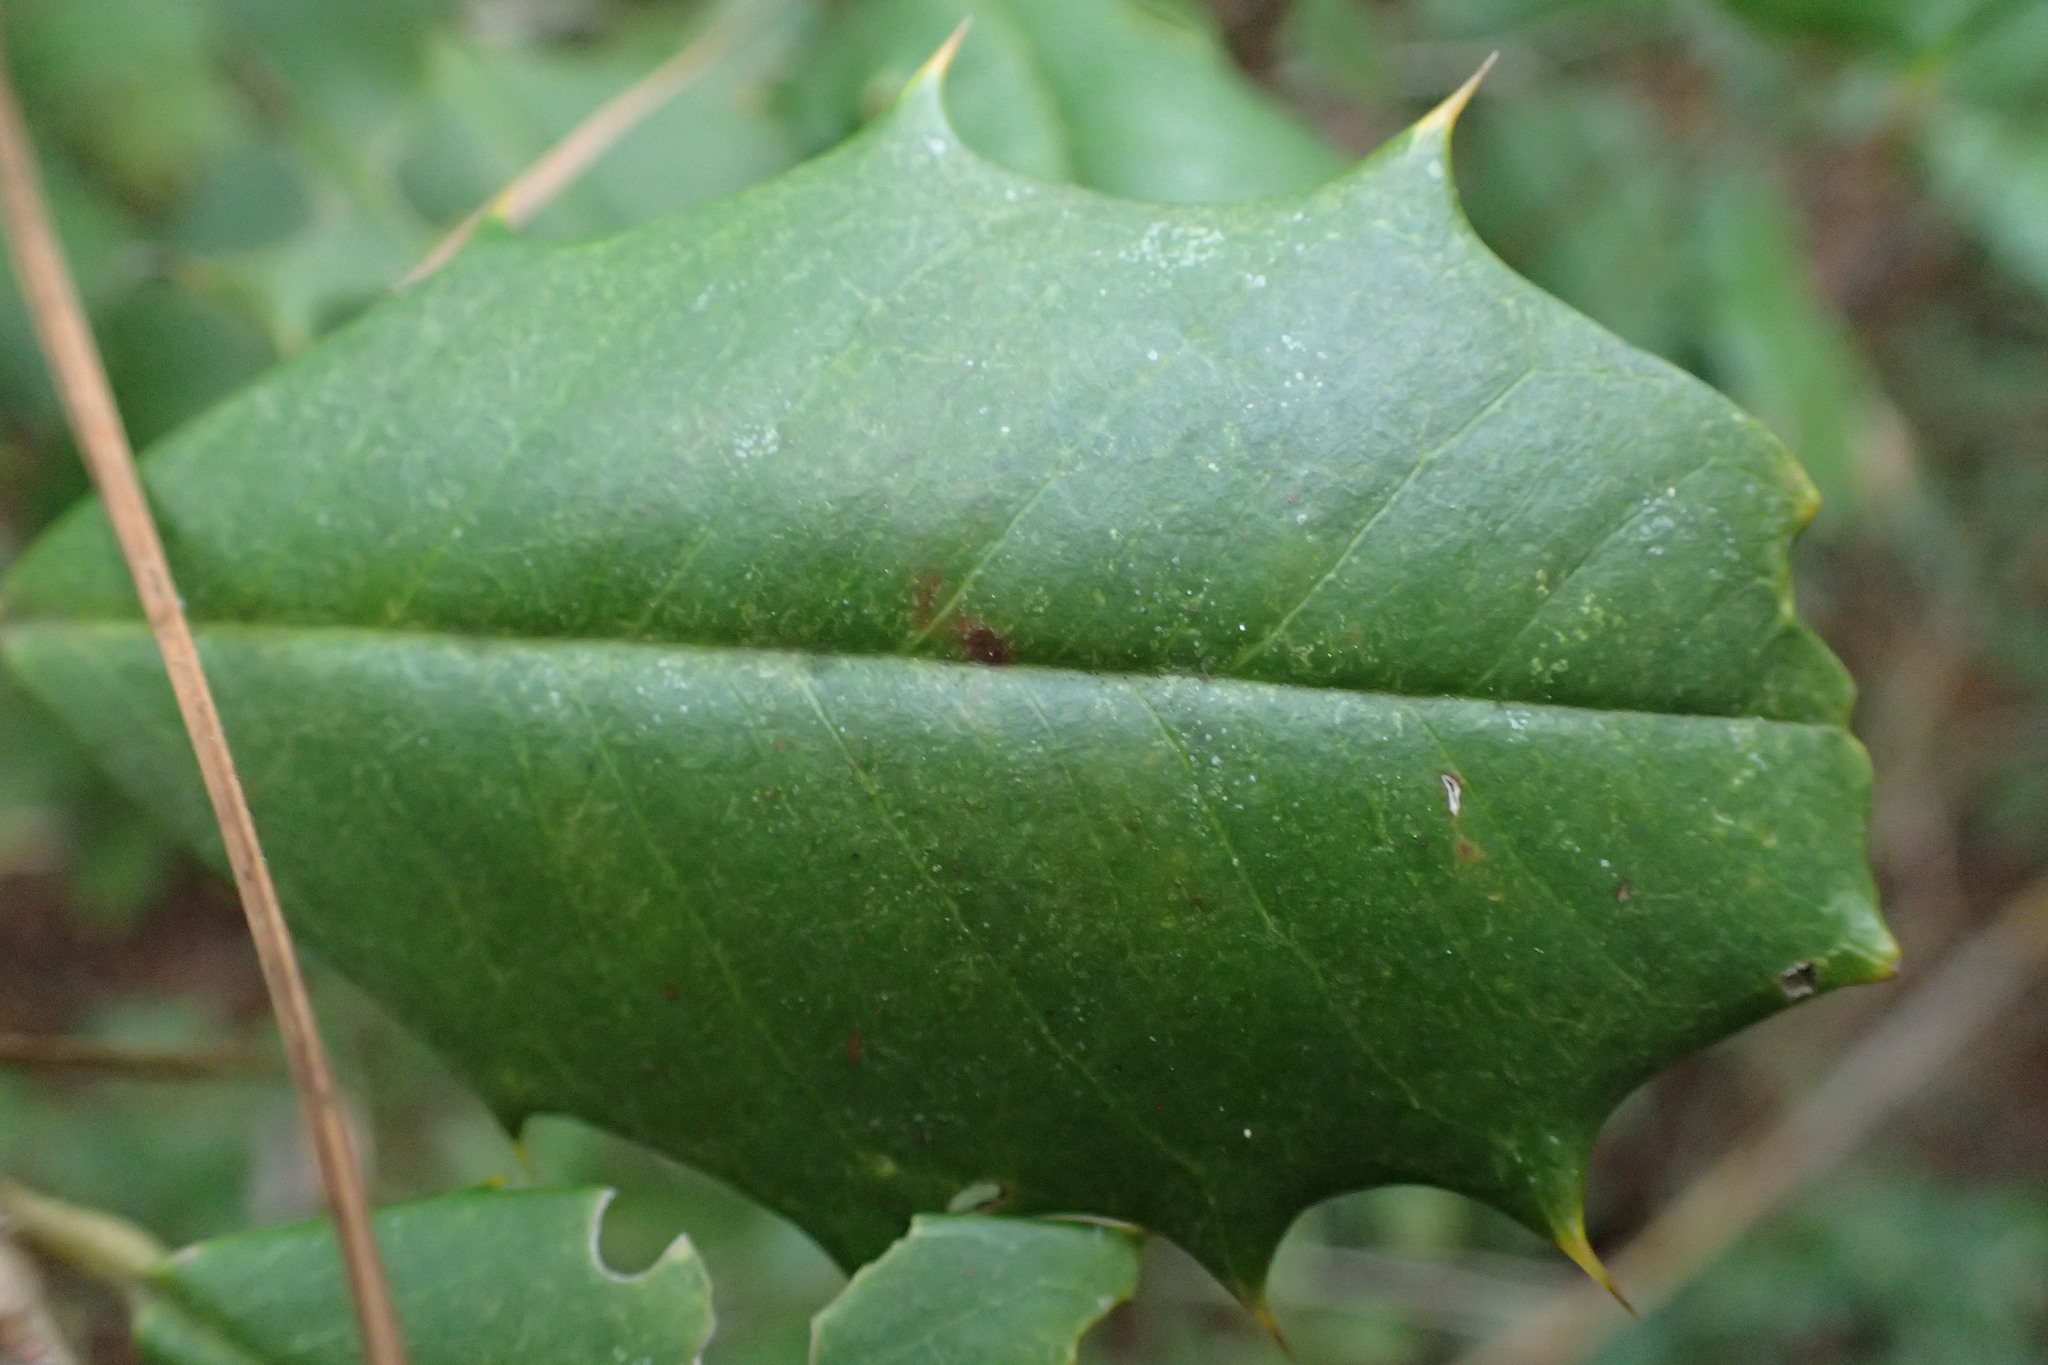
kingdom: Plantae
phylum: Tracheophyta
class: Magnoliopsida
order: Aquifoliales
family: Aquifoliaceae
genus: Ilex
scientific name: Ilex opaca
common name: American holly
